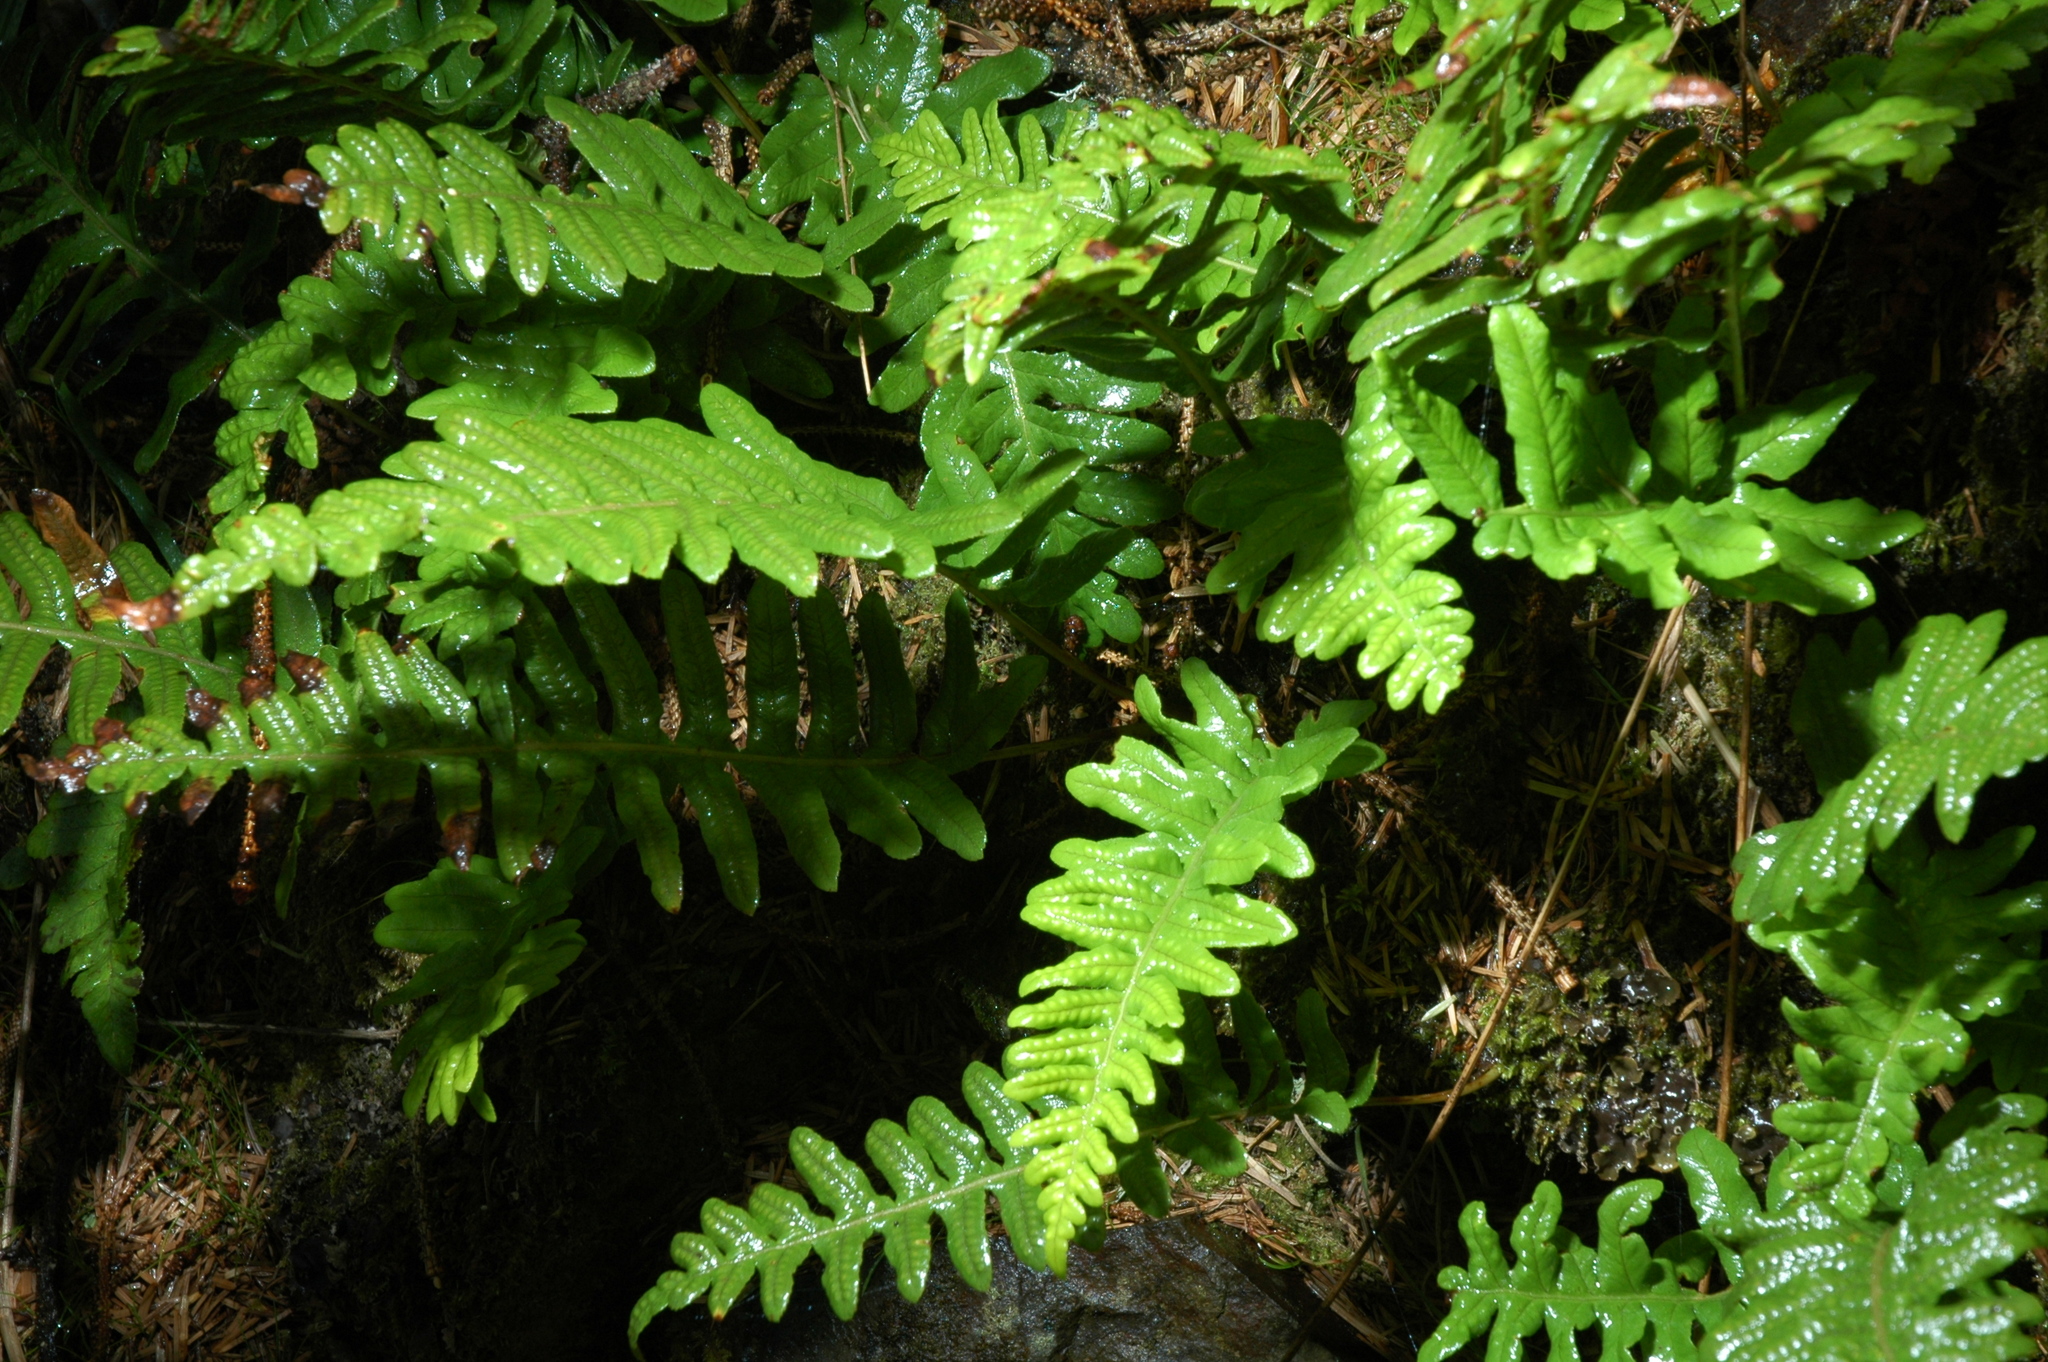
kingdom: Plantae
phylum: Tracheophyta
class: Polypodiopsida
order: Polypodiales
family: Polypodiaceae
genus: Polypodium
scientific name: Polypodium calirhiza
